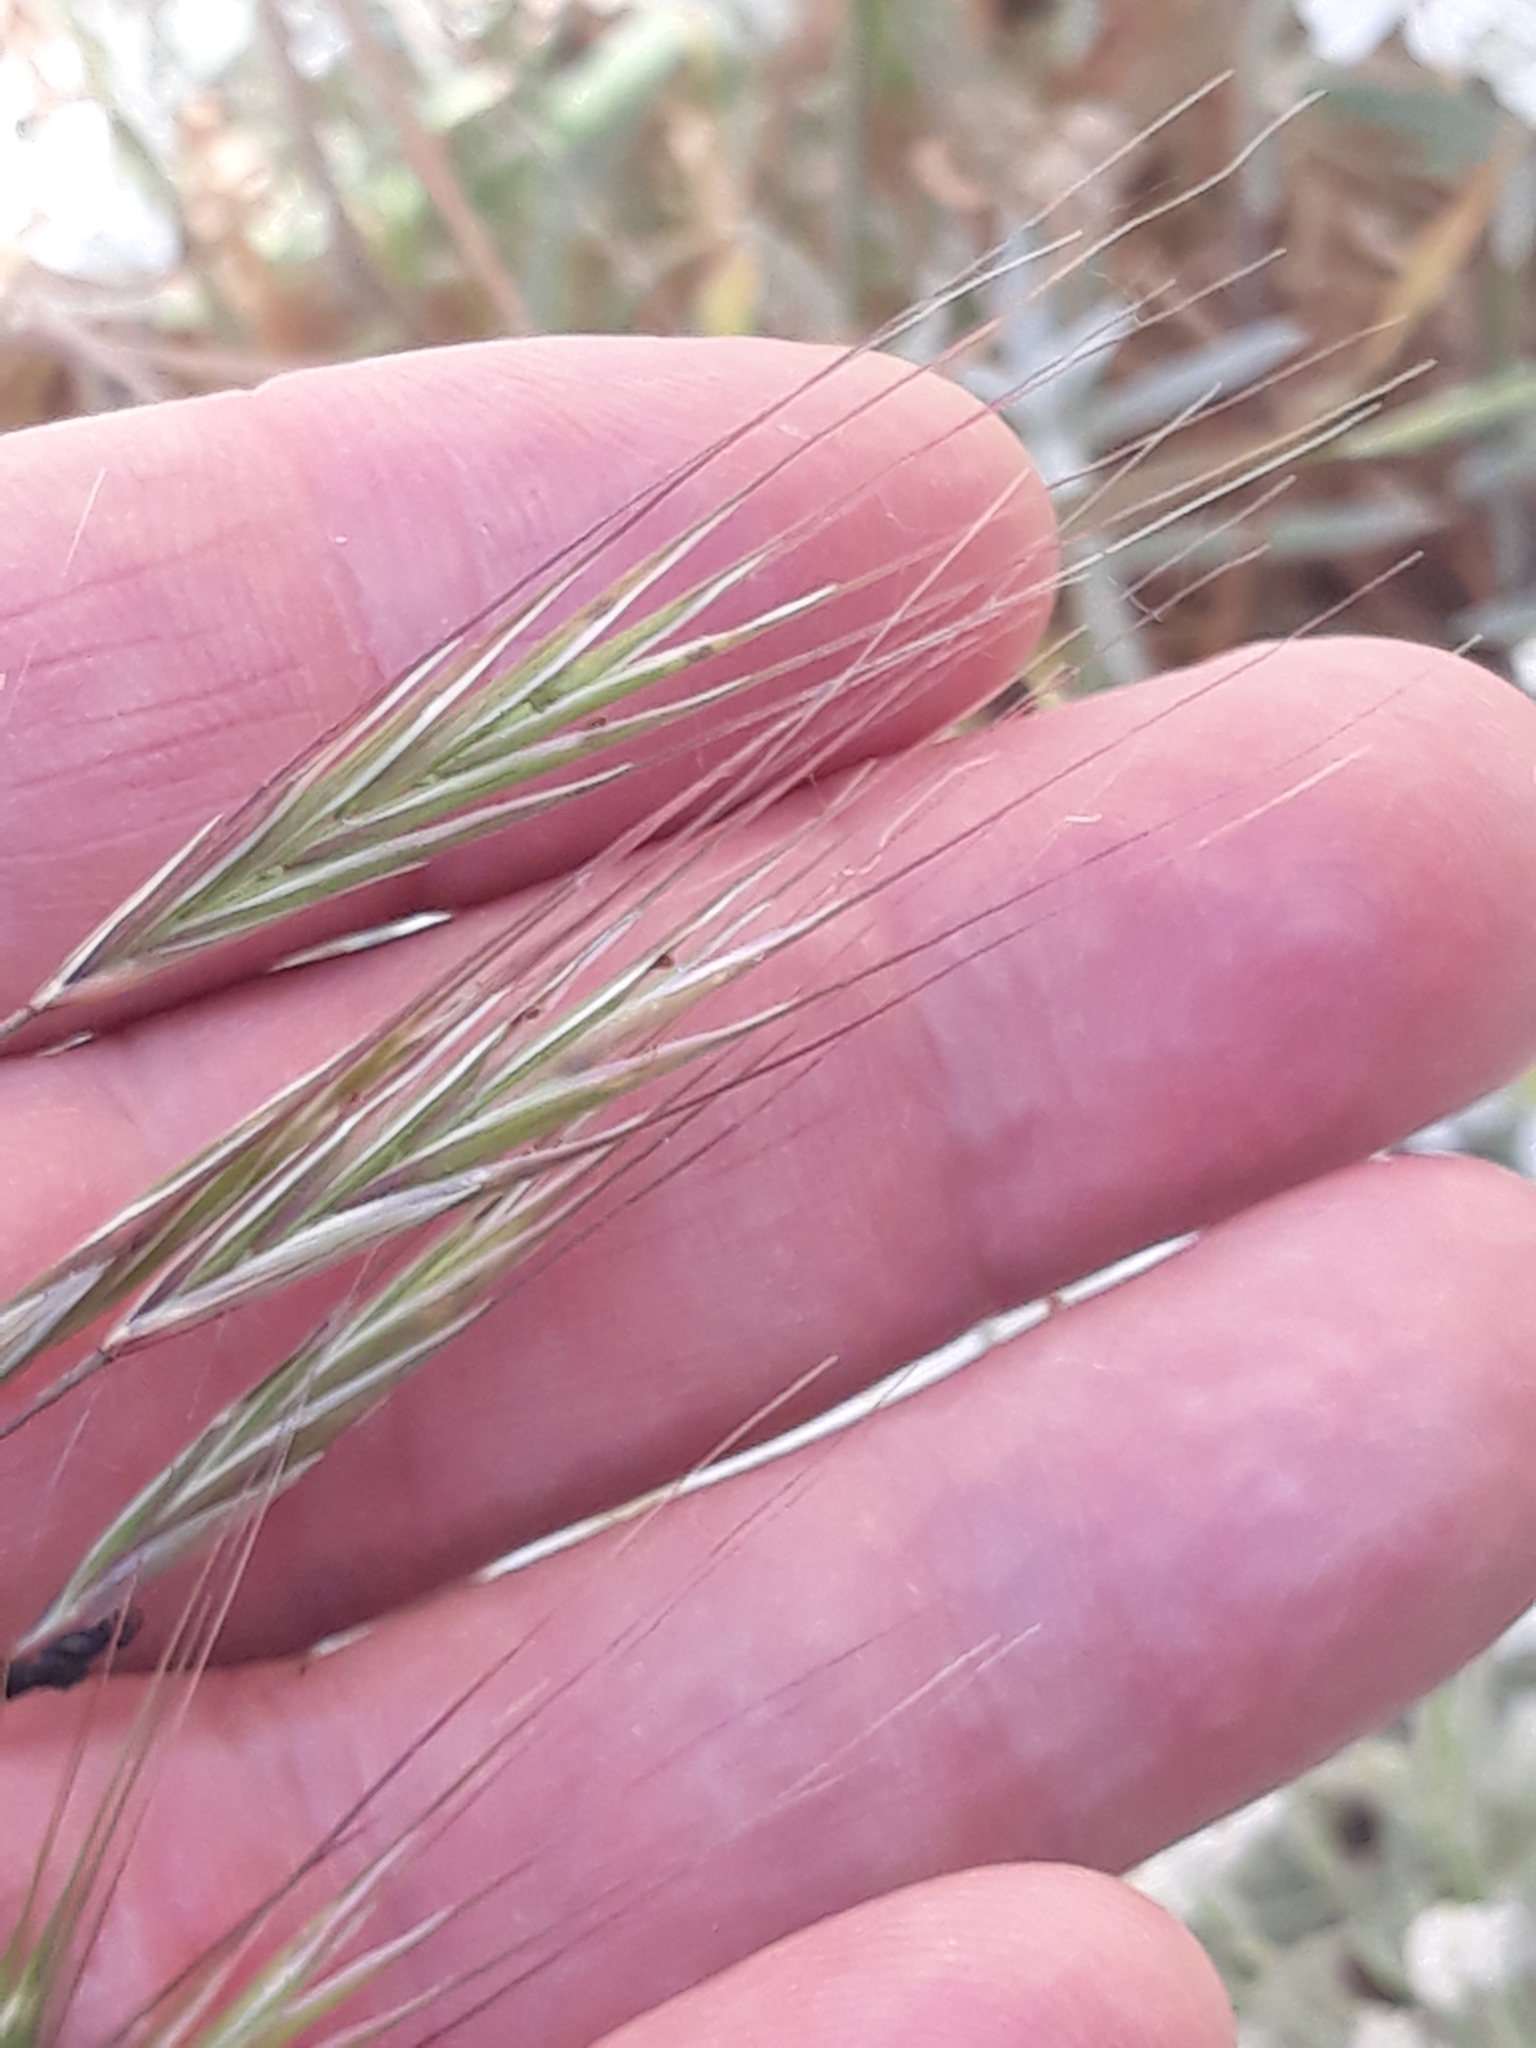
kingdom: Plantae
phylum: Tracheophyta
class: Liliopsida
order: Poales
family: Poaceae
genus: Bromus
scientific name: Bromus sterilis
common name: Poverty brome
